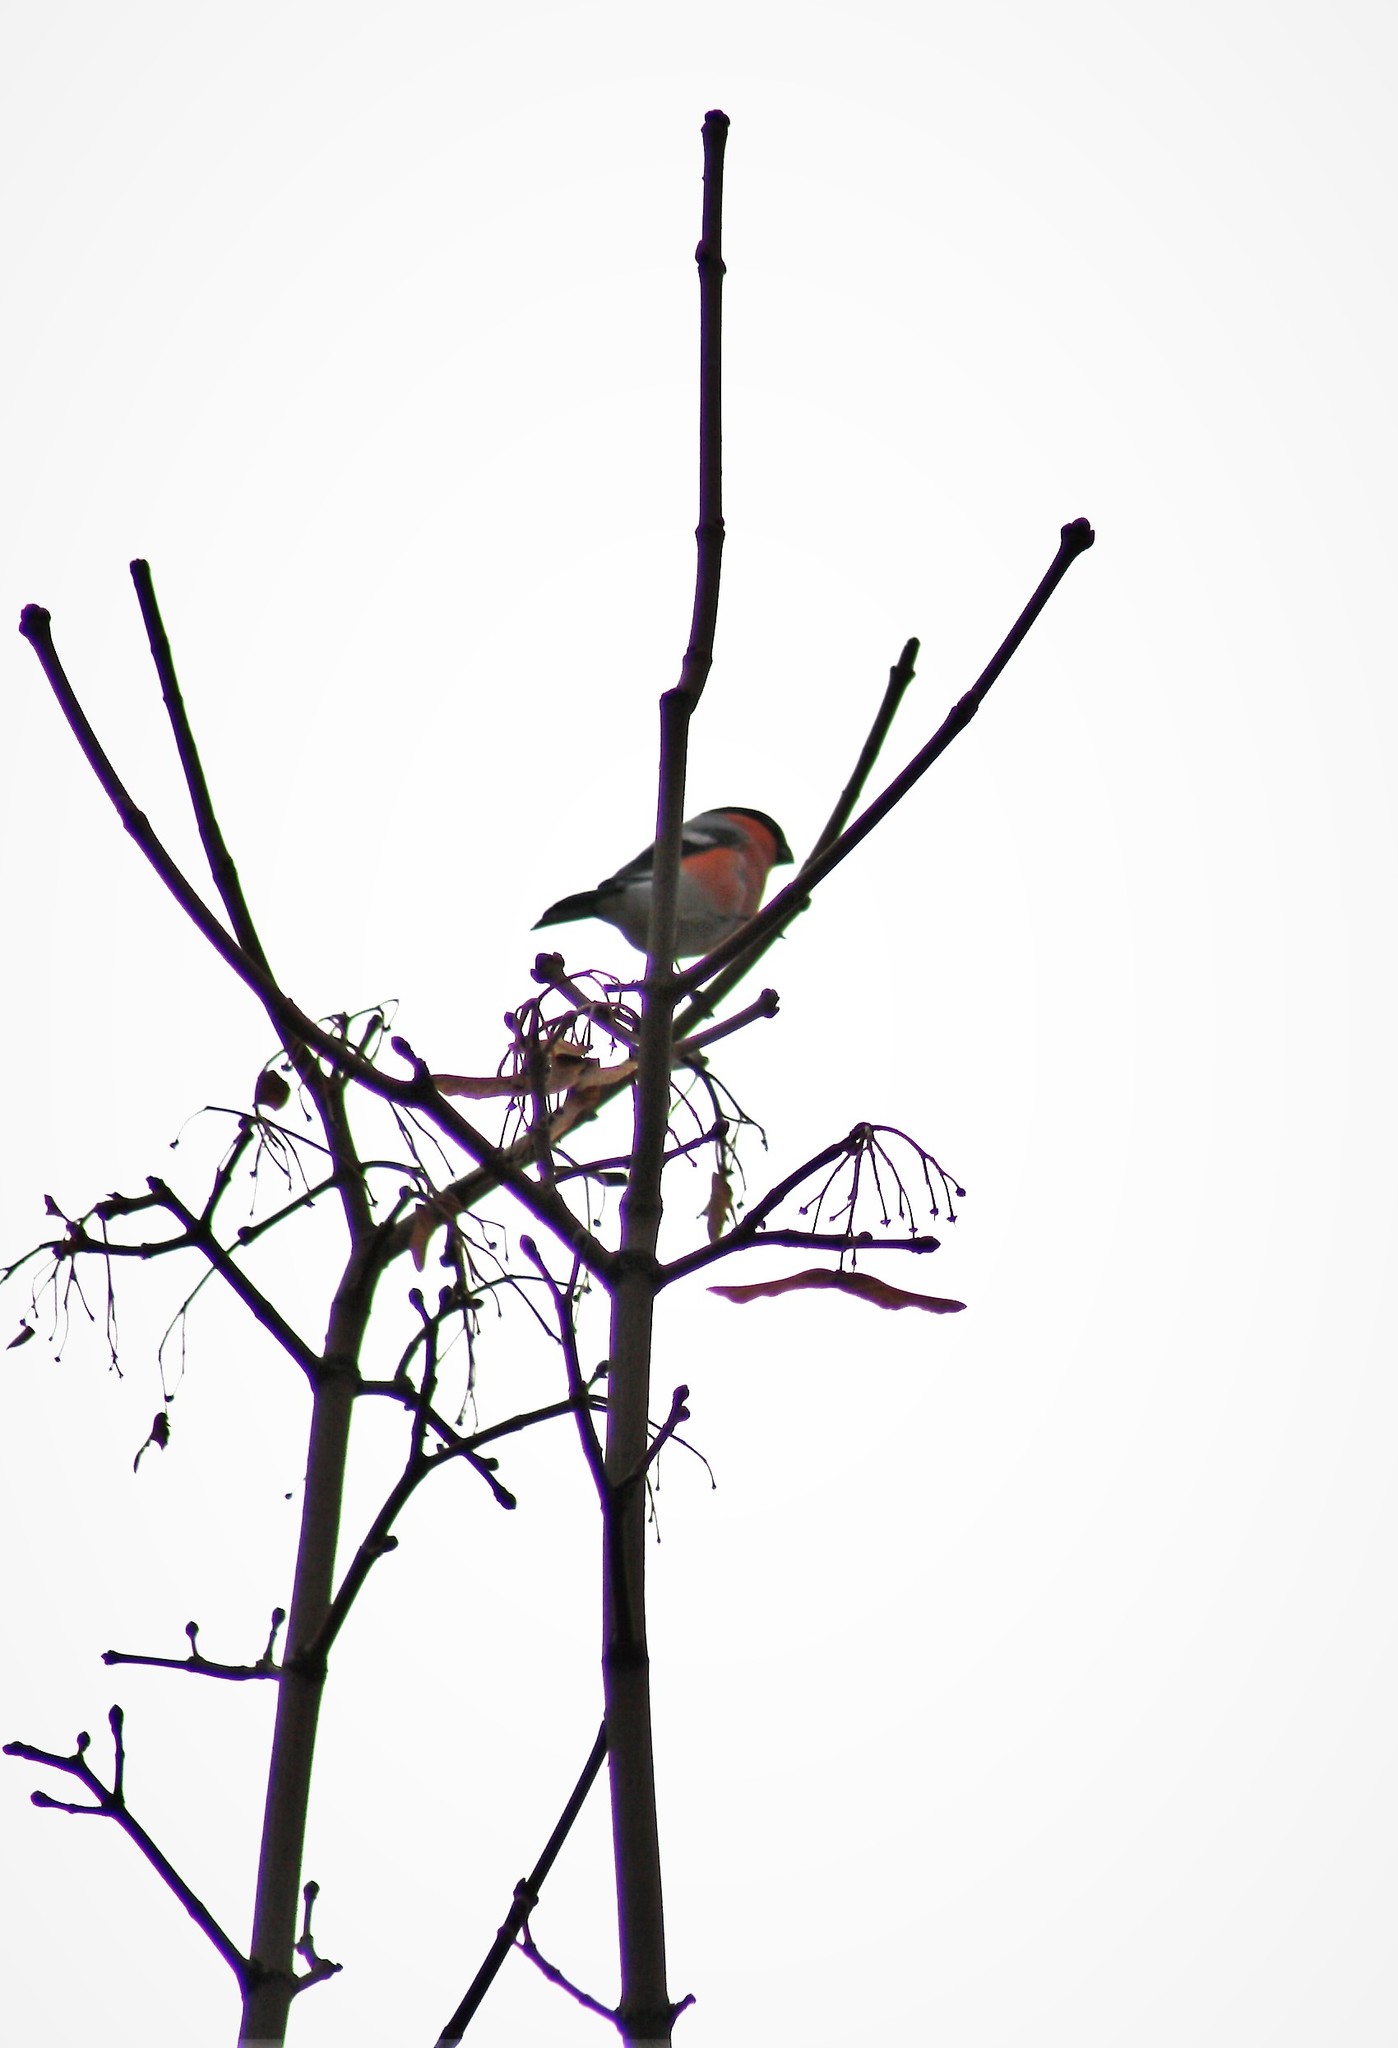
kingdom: Animalia
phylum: Chordata
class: Aves
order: Passeriformes
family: Fringillidae
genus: Pyrrhula
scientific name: Pyrrhula pyrrhula
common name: Eurasian bullfinch
